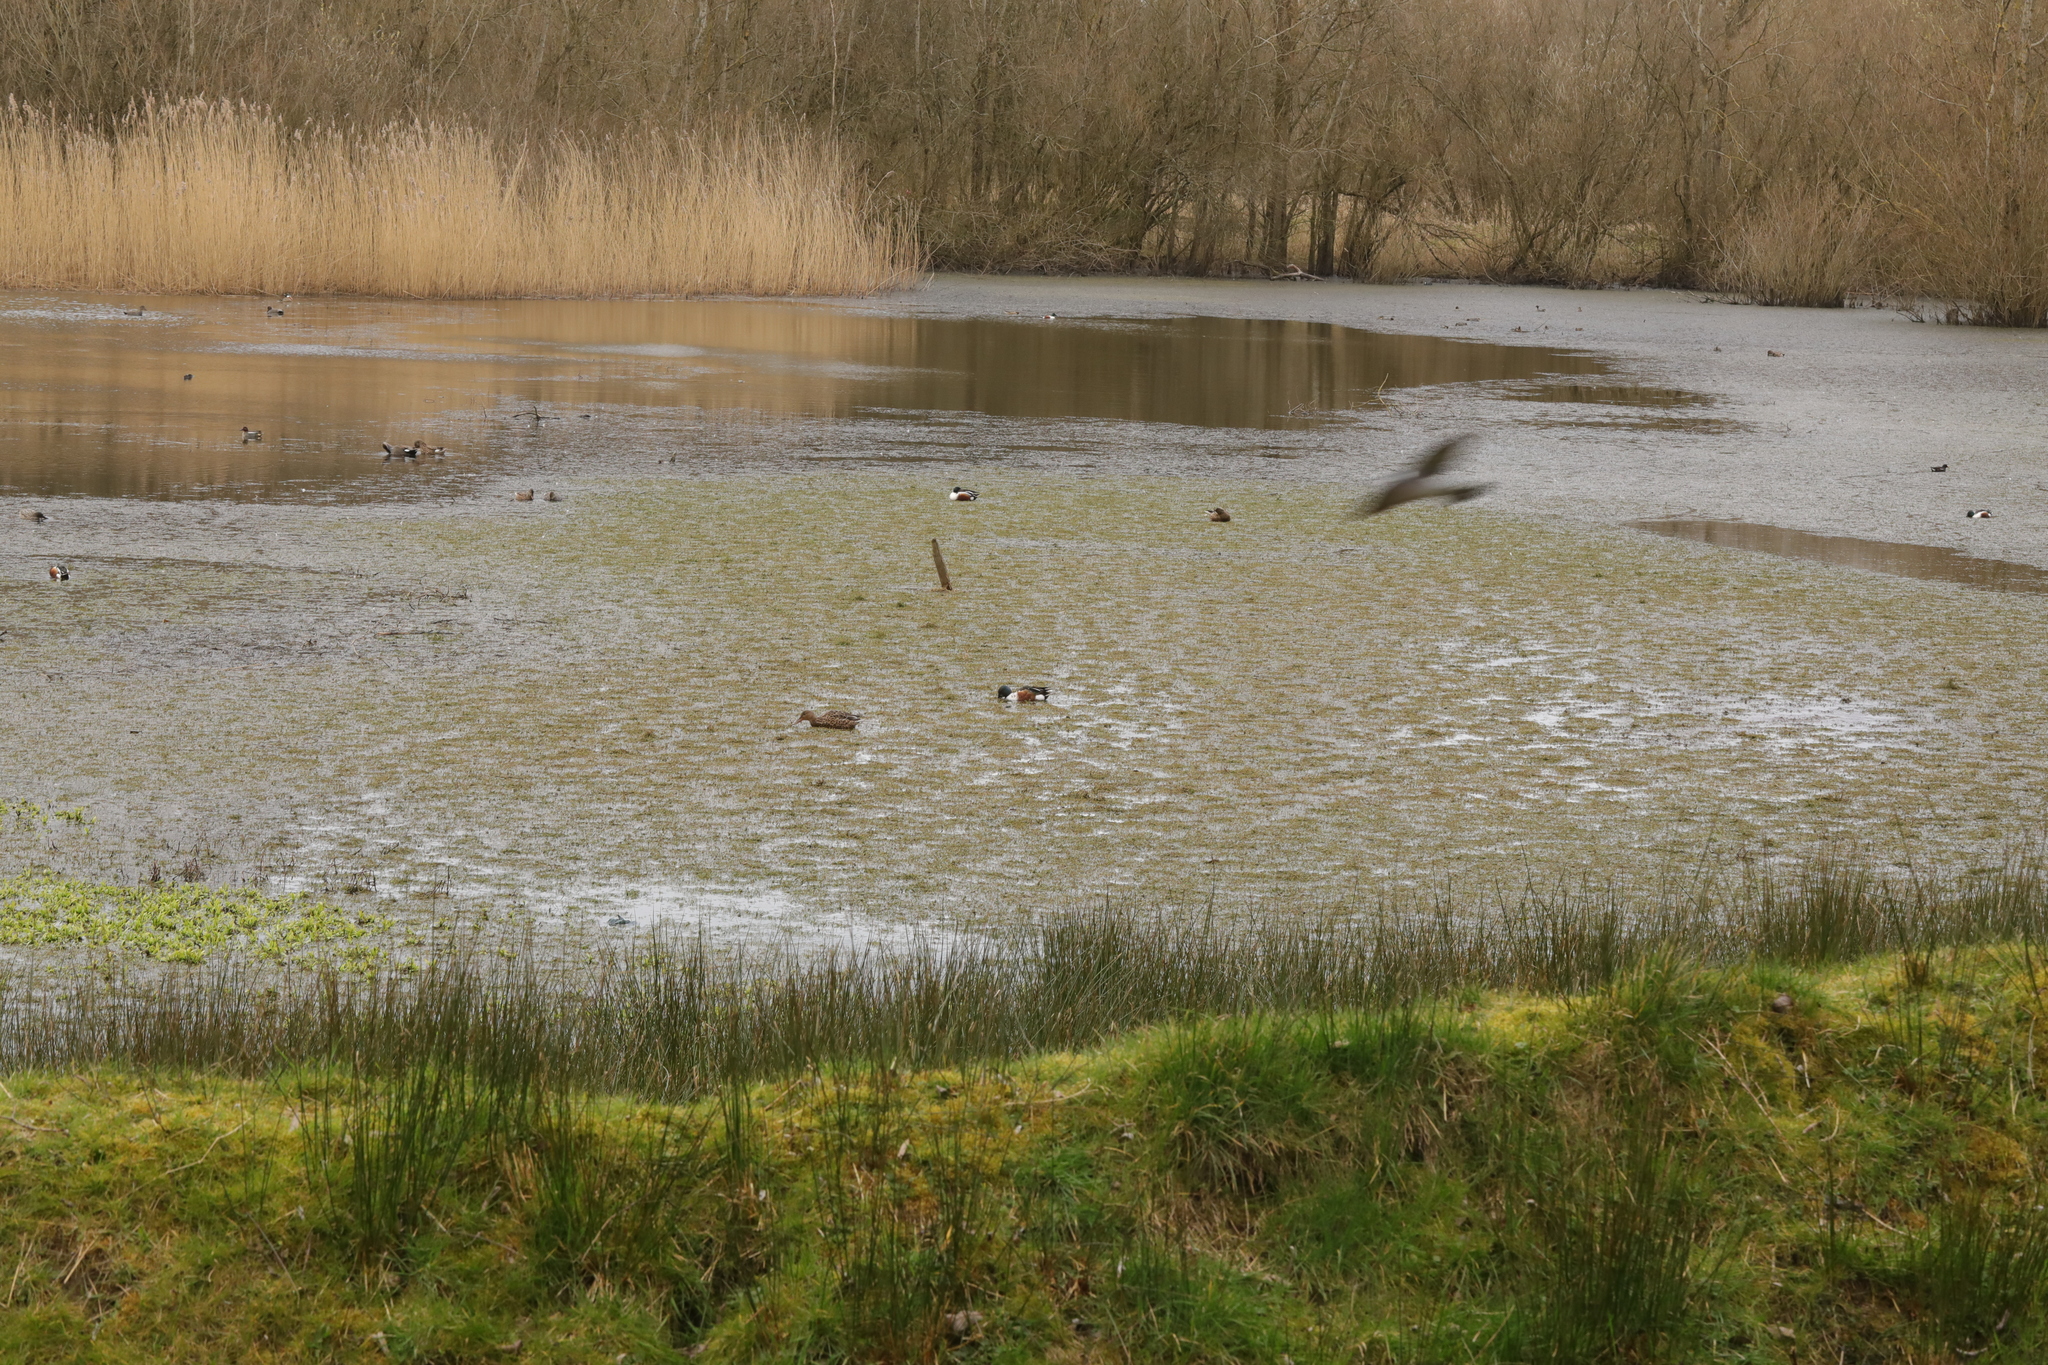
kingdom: Animalia
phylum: Chordata
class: Aves
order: Anseriformes
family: Anatidae
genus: Spatula
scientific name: Spatula clypeata
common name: Northern shoveler
